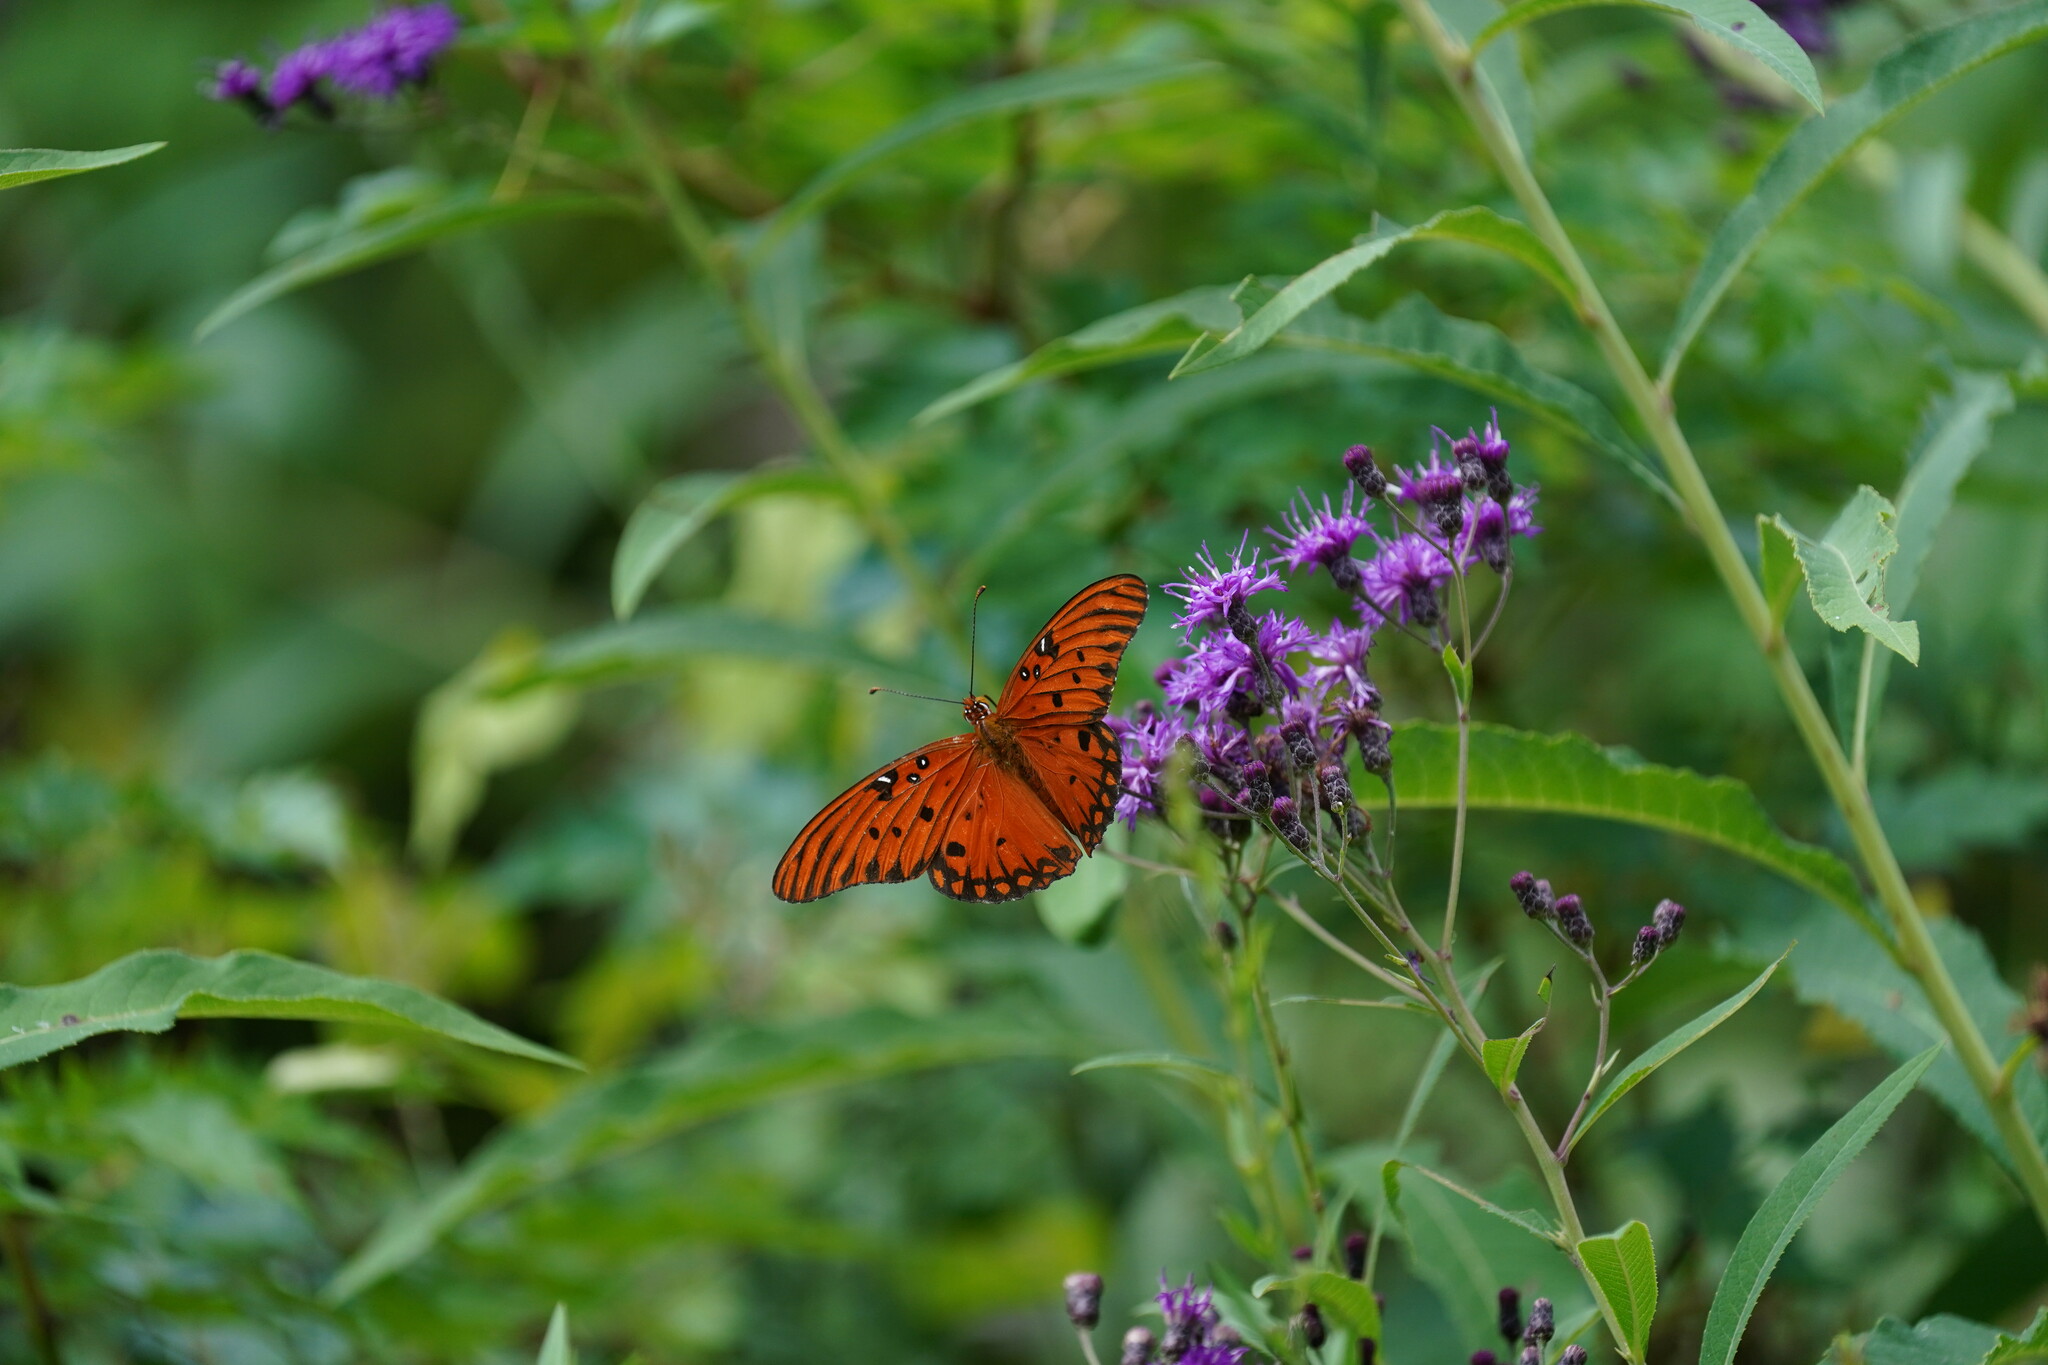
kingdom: Animalia
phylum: Arthropoda
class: Insecta
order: Lepidoptera
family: Nymphalidae
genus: Dione
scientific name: Dione vanillae
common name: Gulf fritillary
